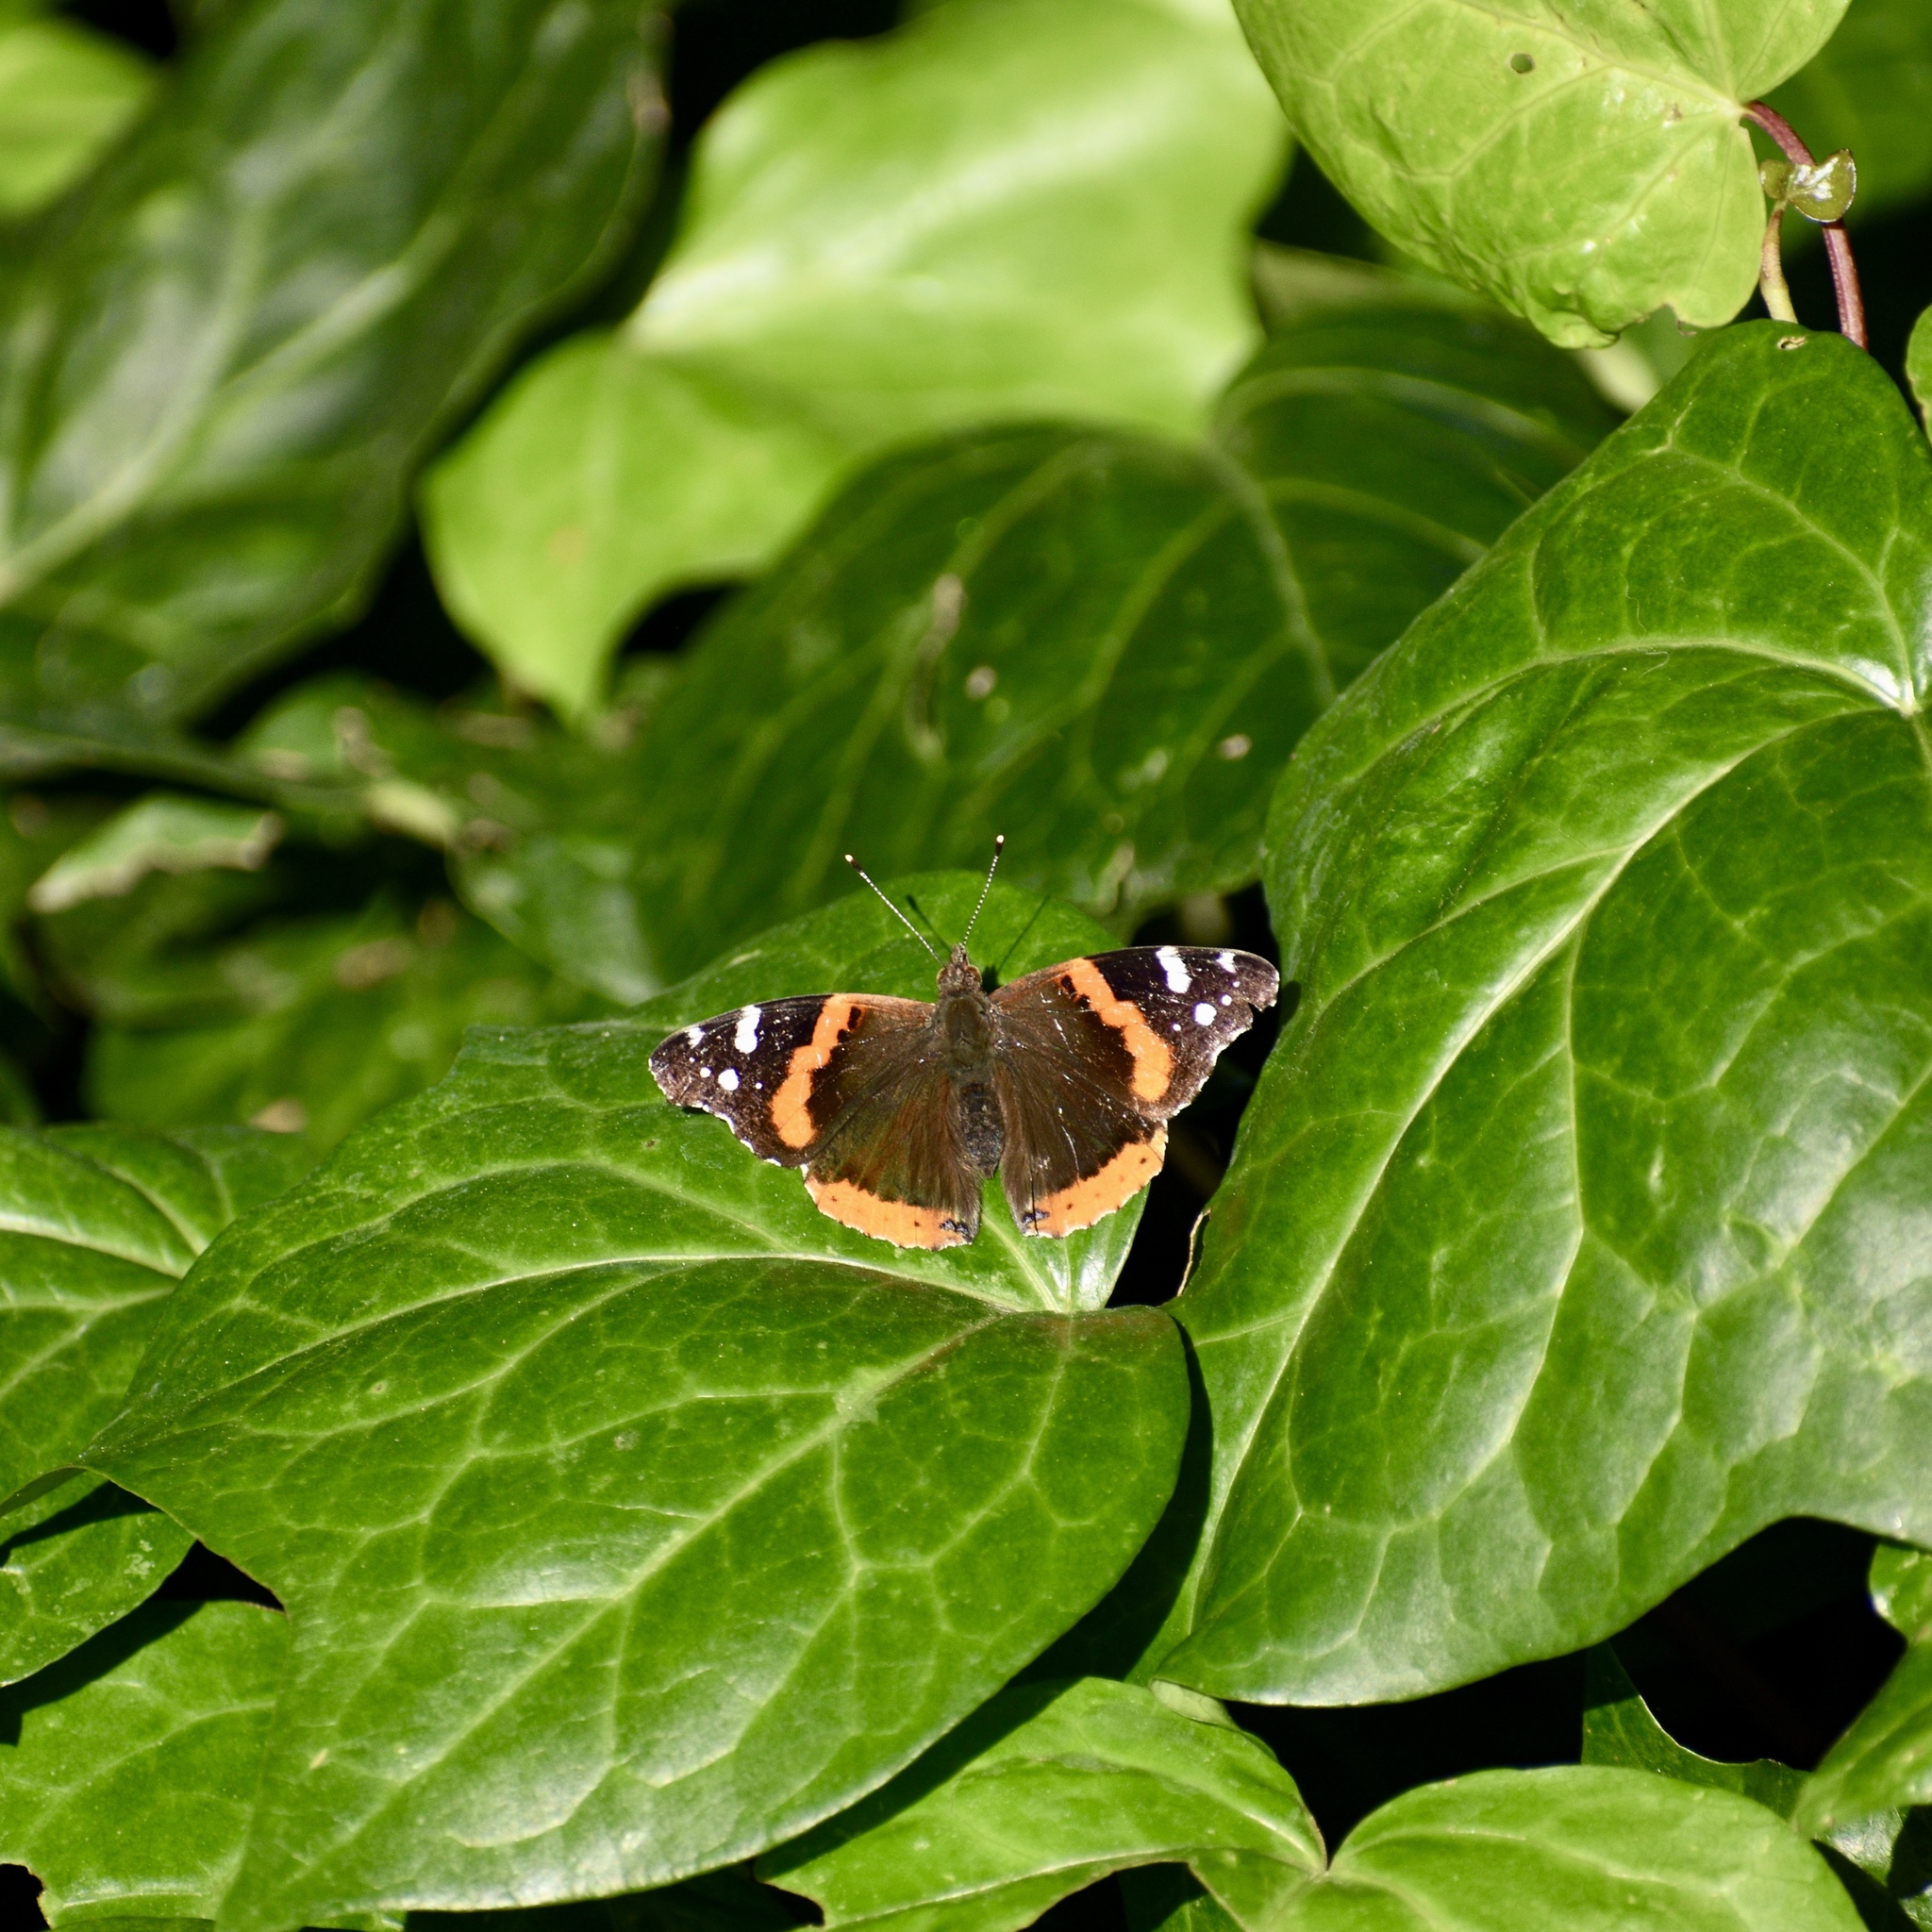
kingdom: Animalia
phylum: Arthropoda
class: Insecta
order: Lepidoptera
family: Nymphalidae
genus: Vanessa
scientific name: Vanessa atalanta
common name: Red admiral
